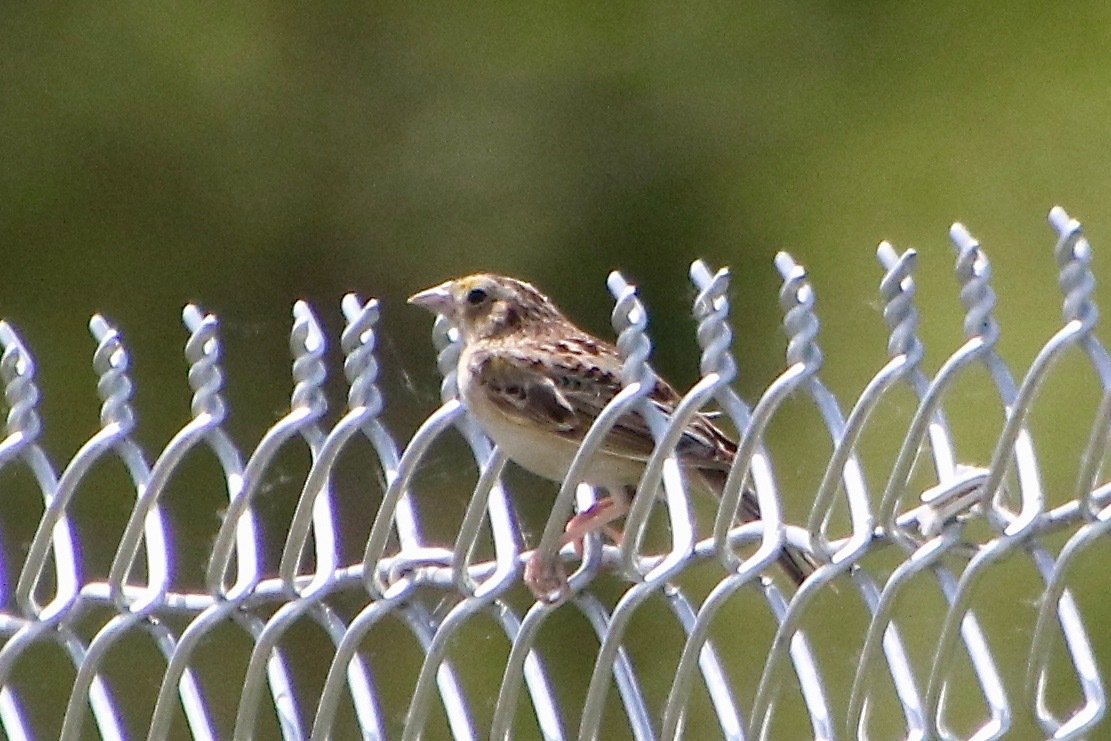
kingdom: Animalia
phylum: Chordata
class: Aves
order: Passeriformes
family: Passerellidae
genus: Ammodramus
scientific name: Ammodramus savannarum
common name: Grasshopper sparrow
